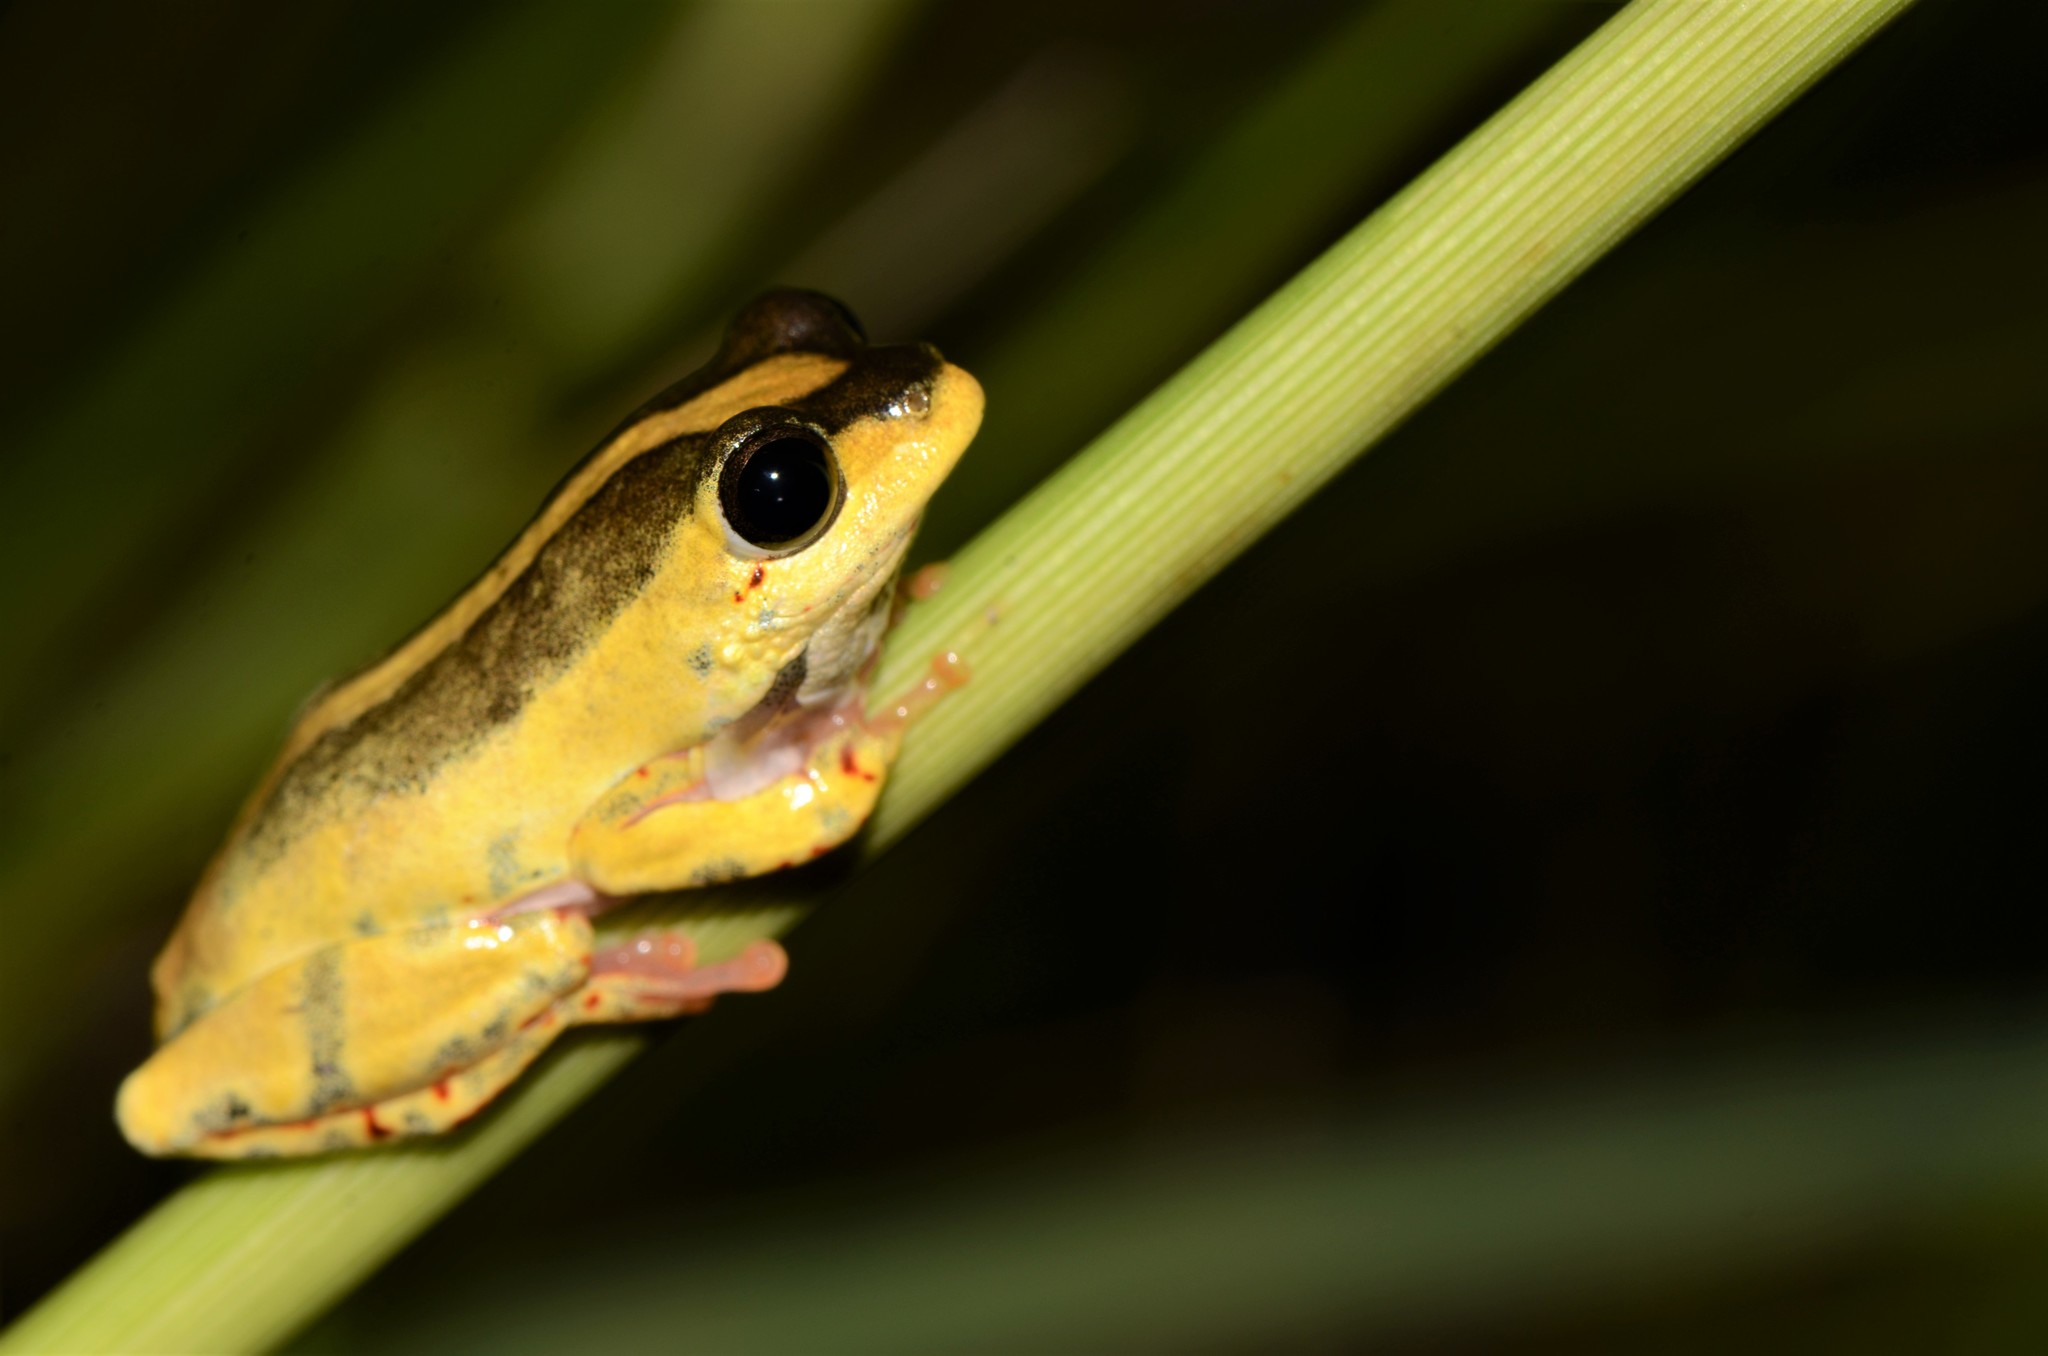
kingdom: Animalia
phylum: Chordata
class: Amphibia
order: Anura
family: Hyperoliidae
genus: Hyperolius
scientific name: Hyperolius marmoratus
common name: Painted reed frog
